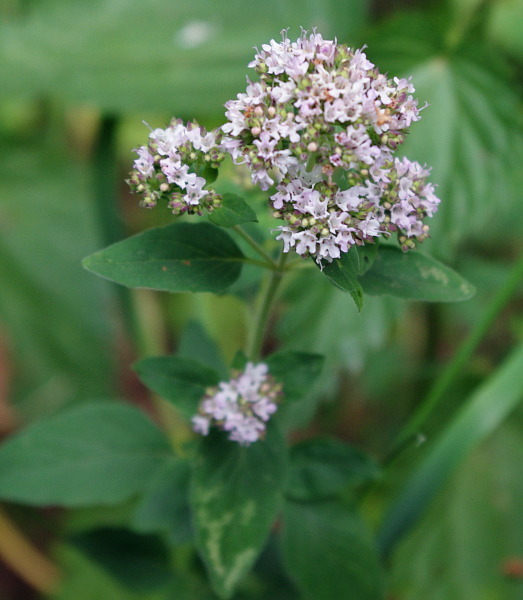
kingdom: Plantae
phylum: Tracheophyta
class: Magnoliopsida
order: Lamiales
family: Lamiaceae
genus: Origanum
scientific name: Origanum vulgare
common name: Wild marjoram
